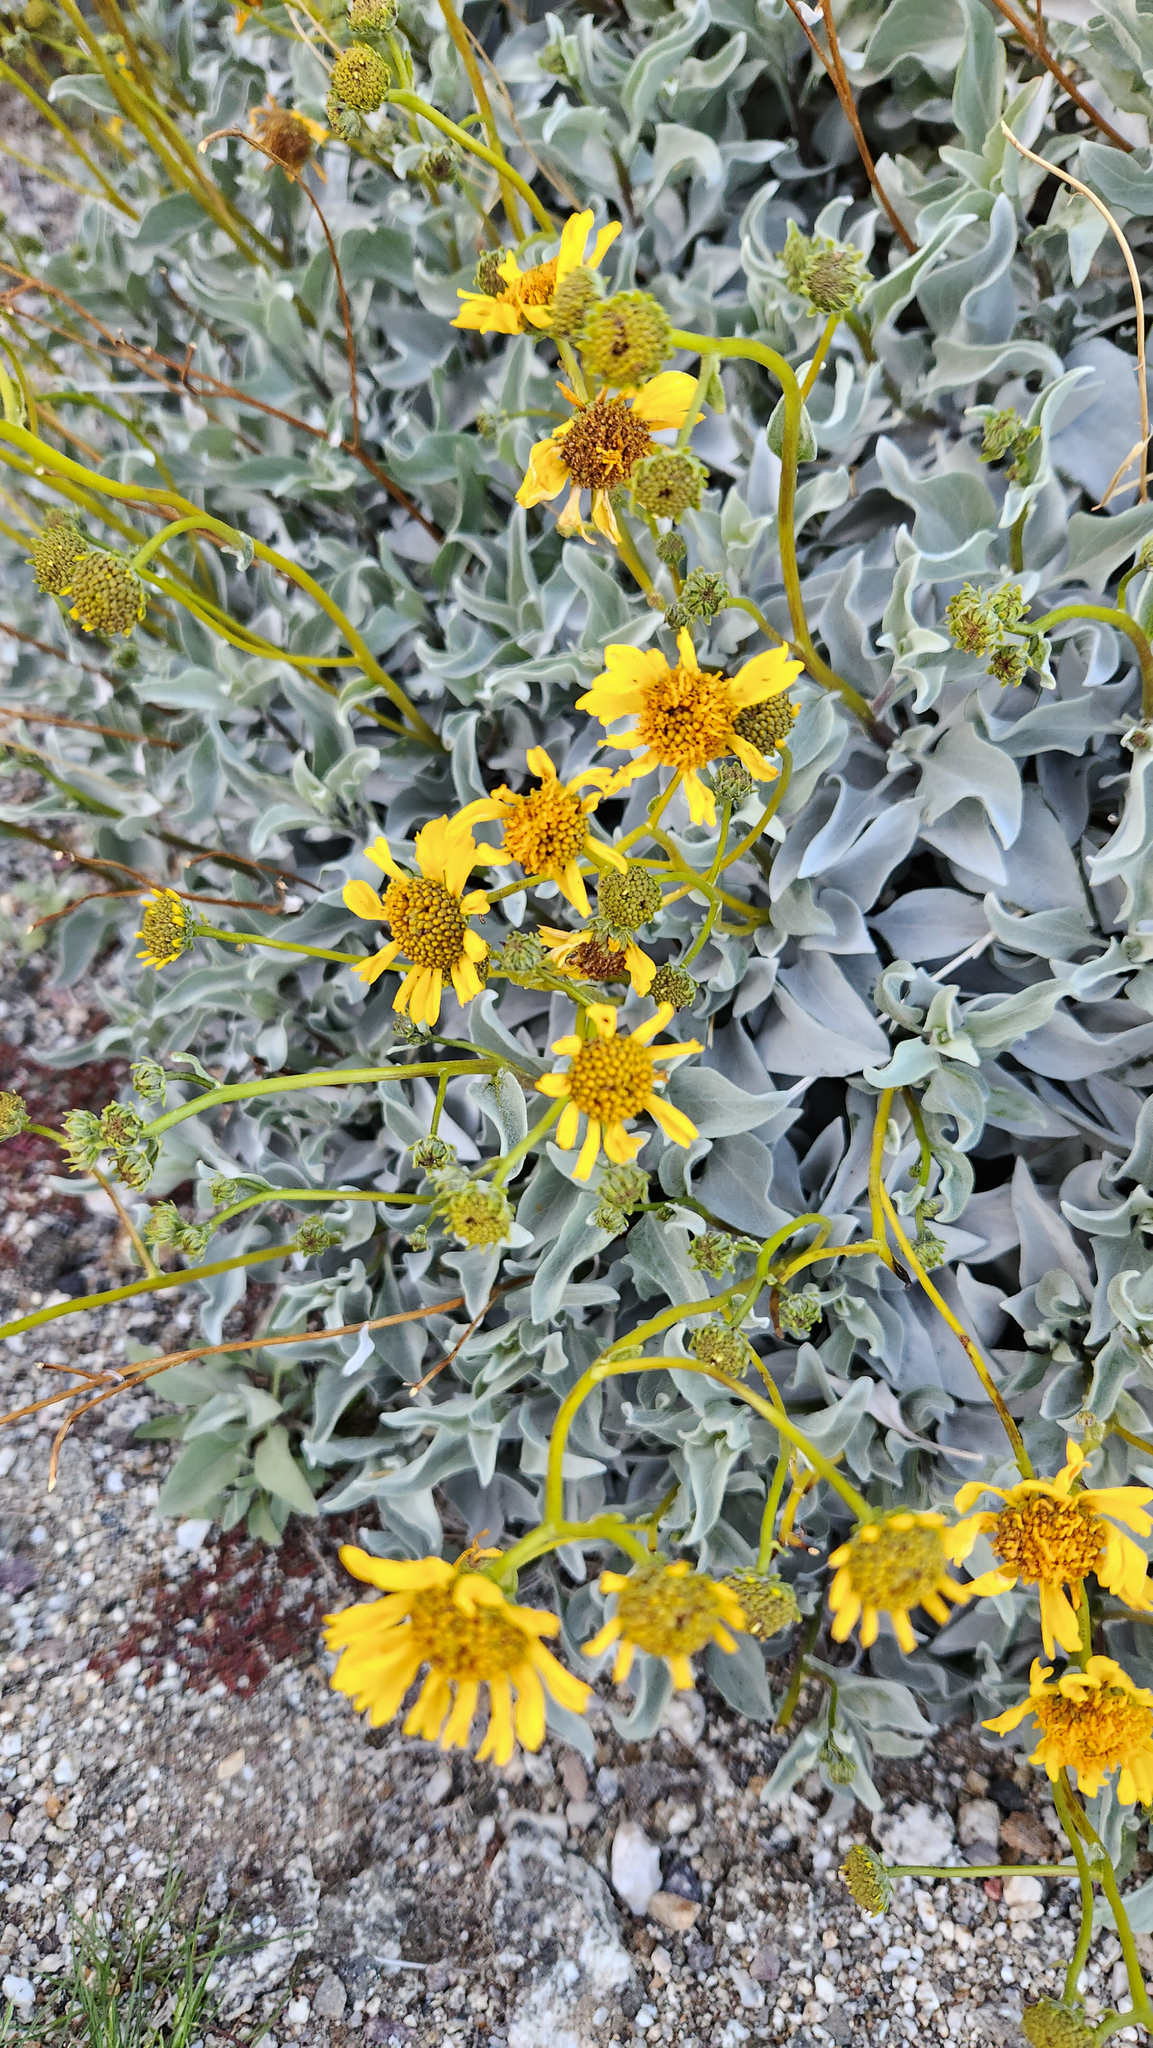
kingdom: Plantae
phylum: Tracheophyta
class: Magnoliopsida
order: Asterales
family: Asteraceae
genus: Encelia
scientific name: Encelia farinosa
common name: Brittlebush
